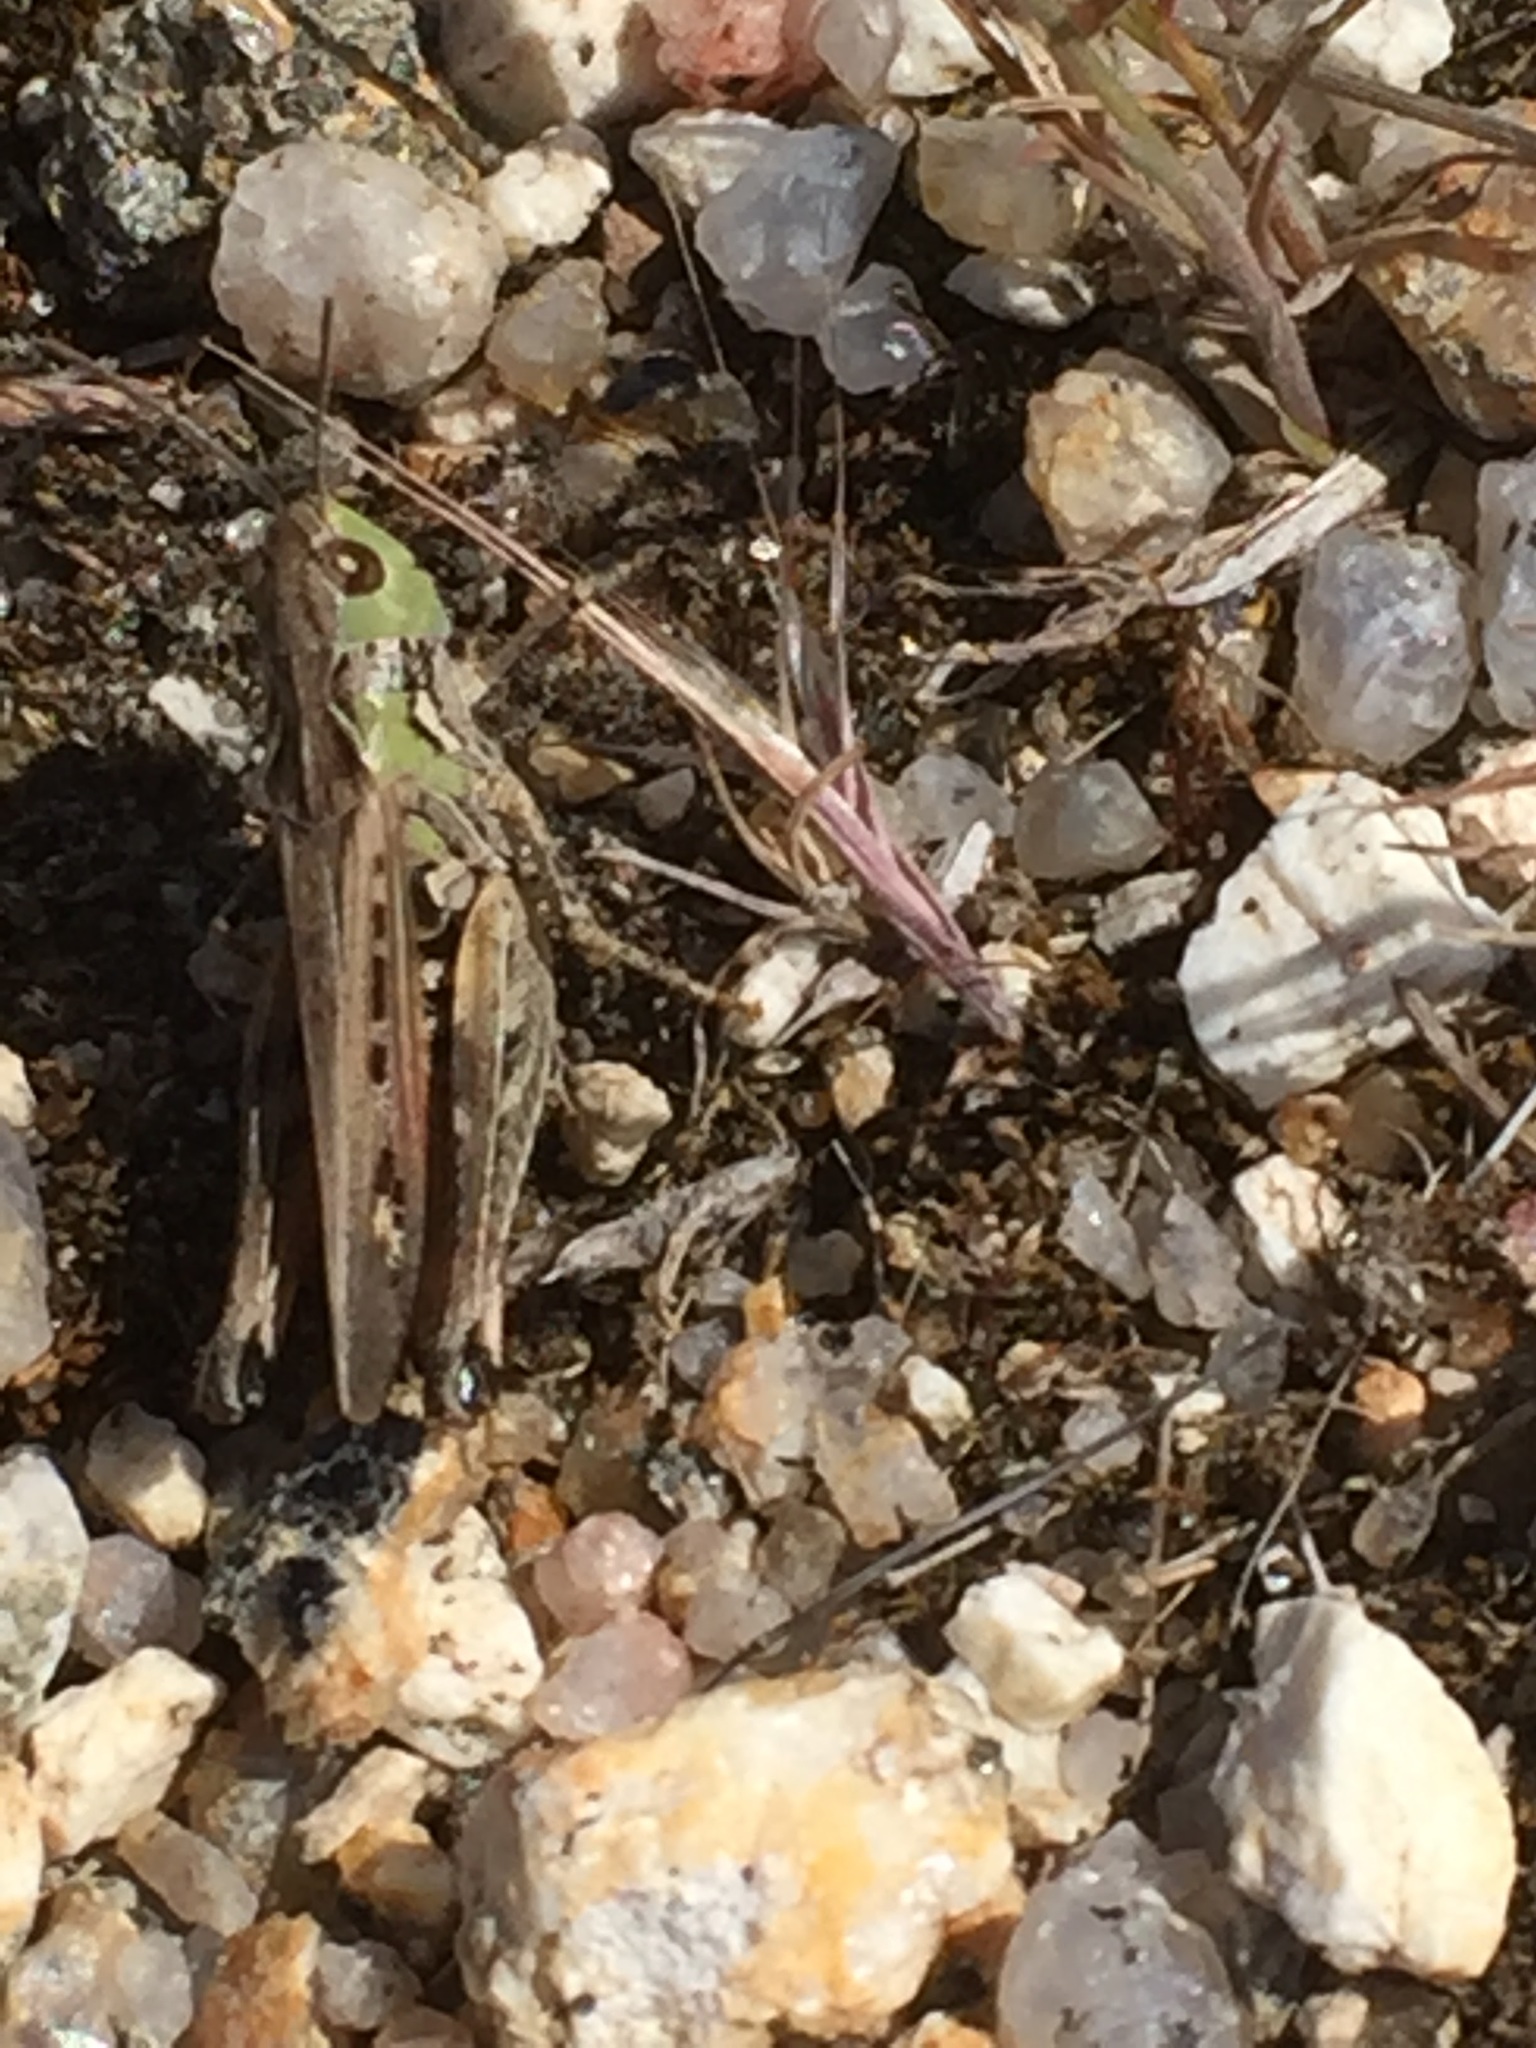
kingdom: Animalia
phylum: Arthropoda
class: Insecta
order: Orthoptera
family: Acrididae
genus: Stenobothrus
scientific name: Stenobothrus festivus
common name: Festive toothed grasshopper
